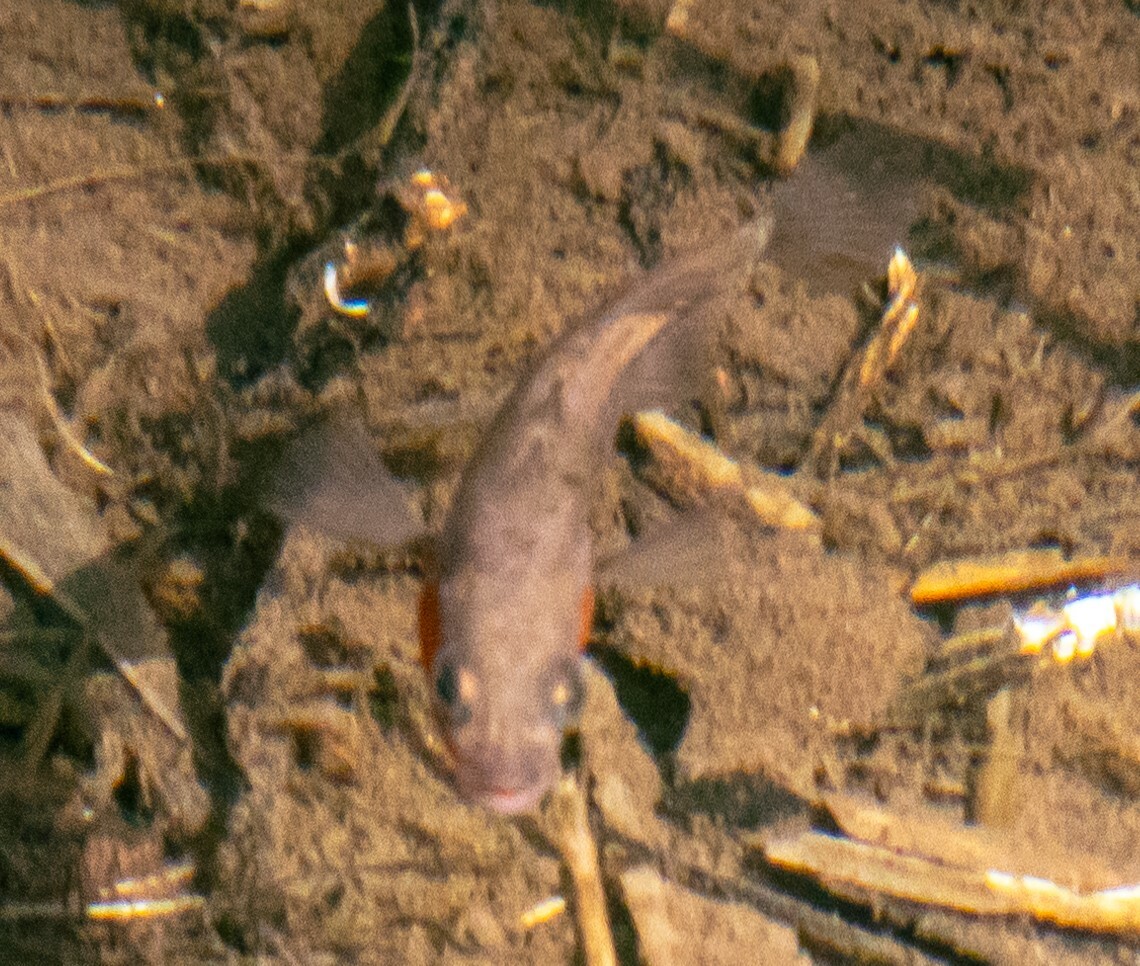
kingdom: Animalia
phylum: Chordata
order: Gasterosteiformes
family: Gasterosteidae
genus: Gasterosteus
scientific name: Gasterosteus aculeatus
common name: Three-spined stickleback
